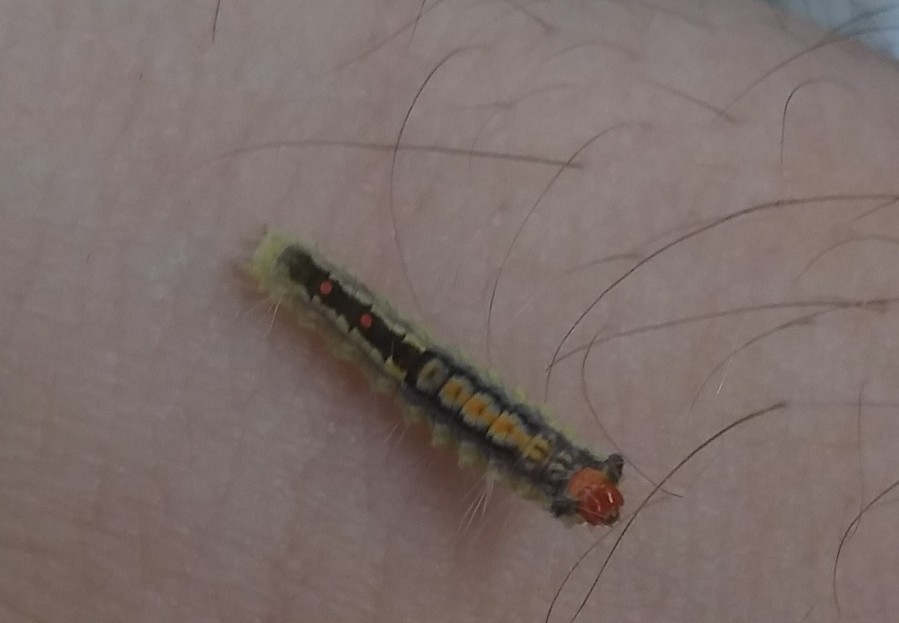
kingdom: Animalia
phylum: Arthropoda
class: Insecta
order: Lepidoptera
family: Erebidae
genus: Orgyia
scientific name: Orgyia leucostigma
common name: White-marked tussock moth
